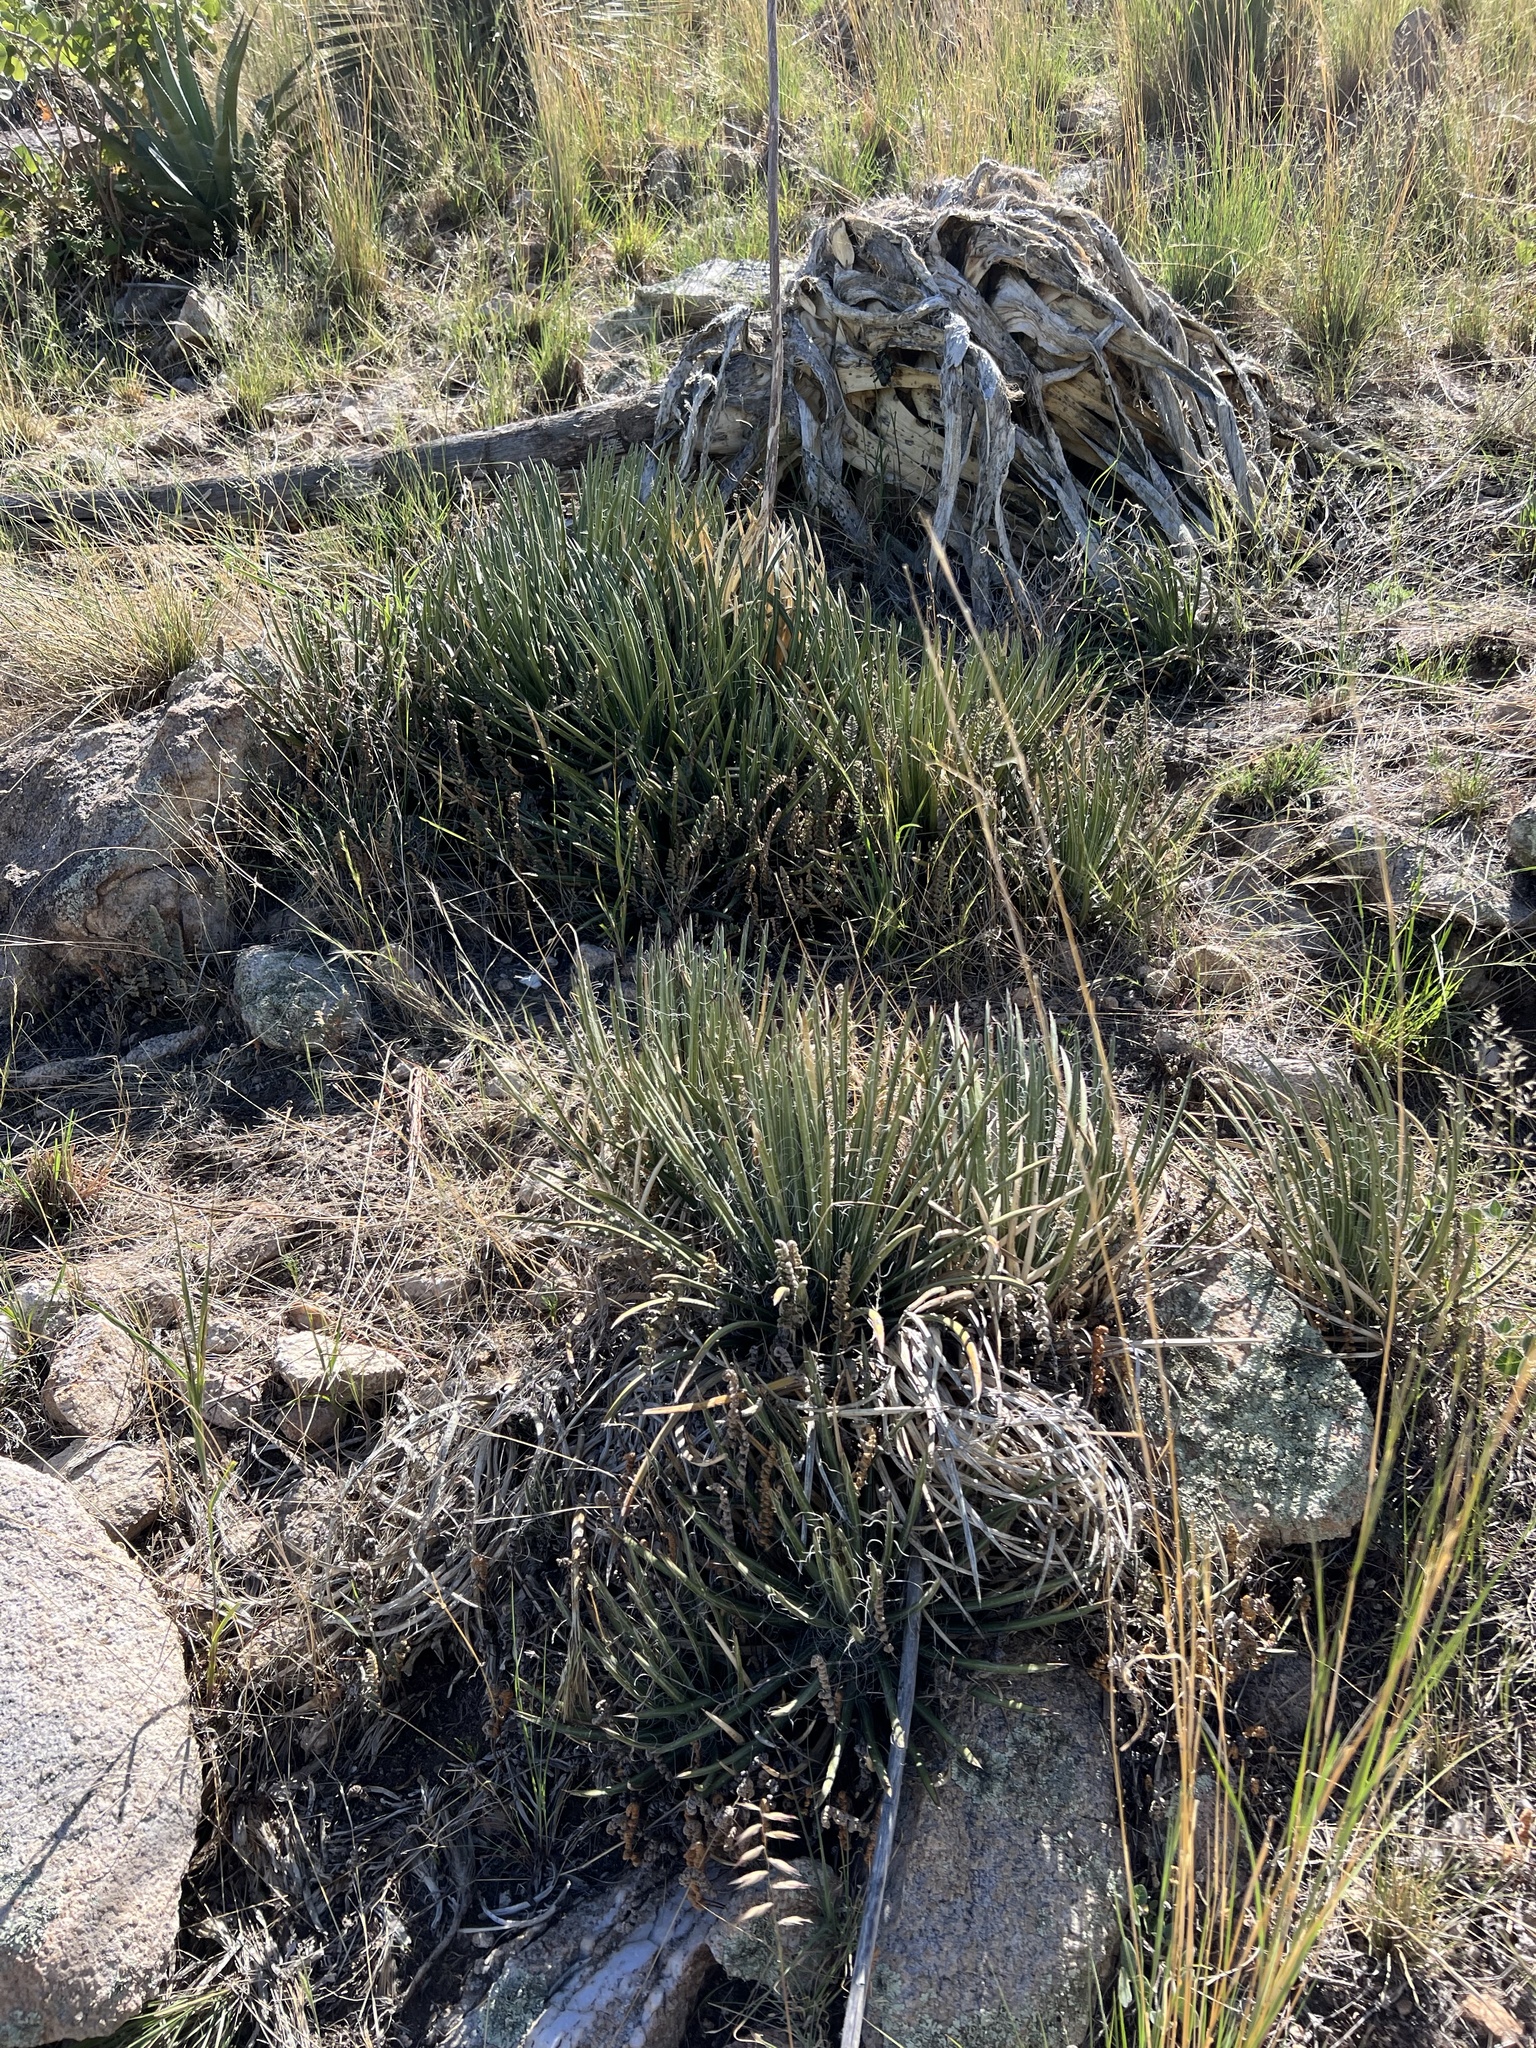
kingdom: Plantae
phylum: Tracheophyta
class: Liliopsida
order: Asparagales
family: Asparagaceae
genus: Agave
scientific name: Agave schottii
